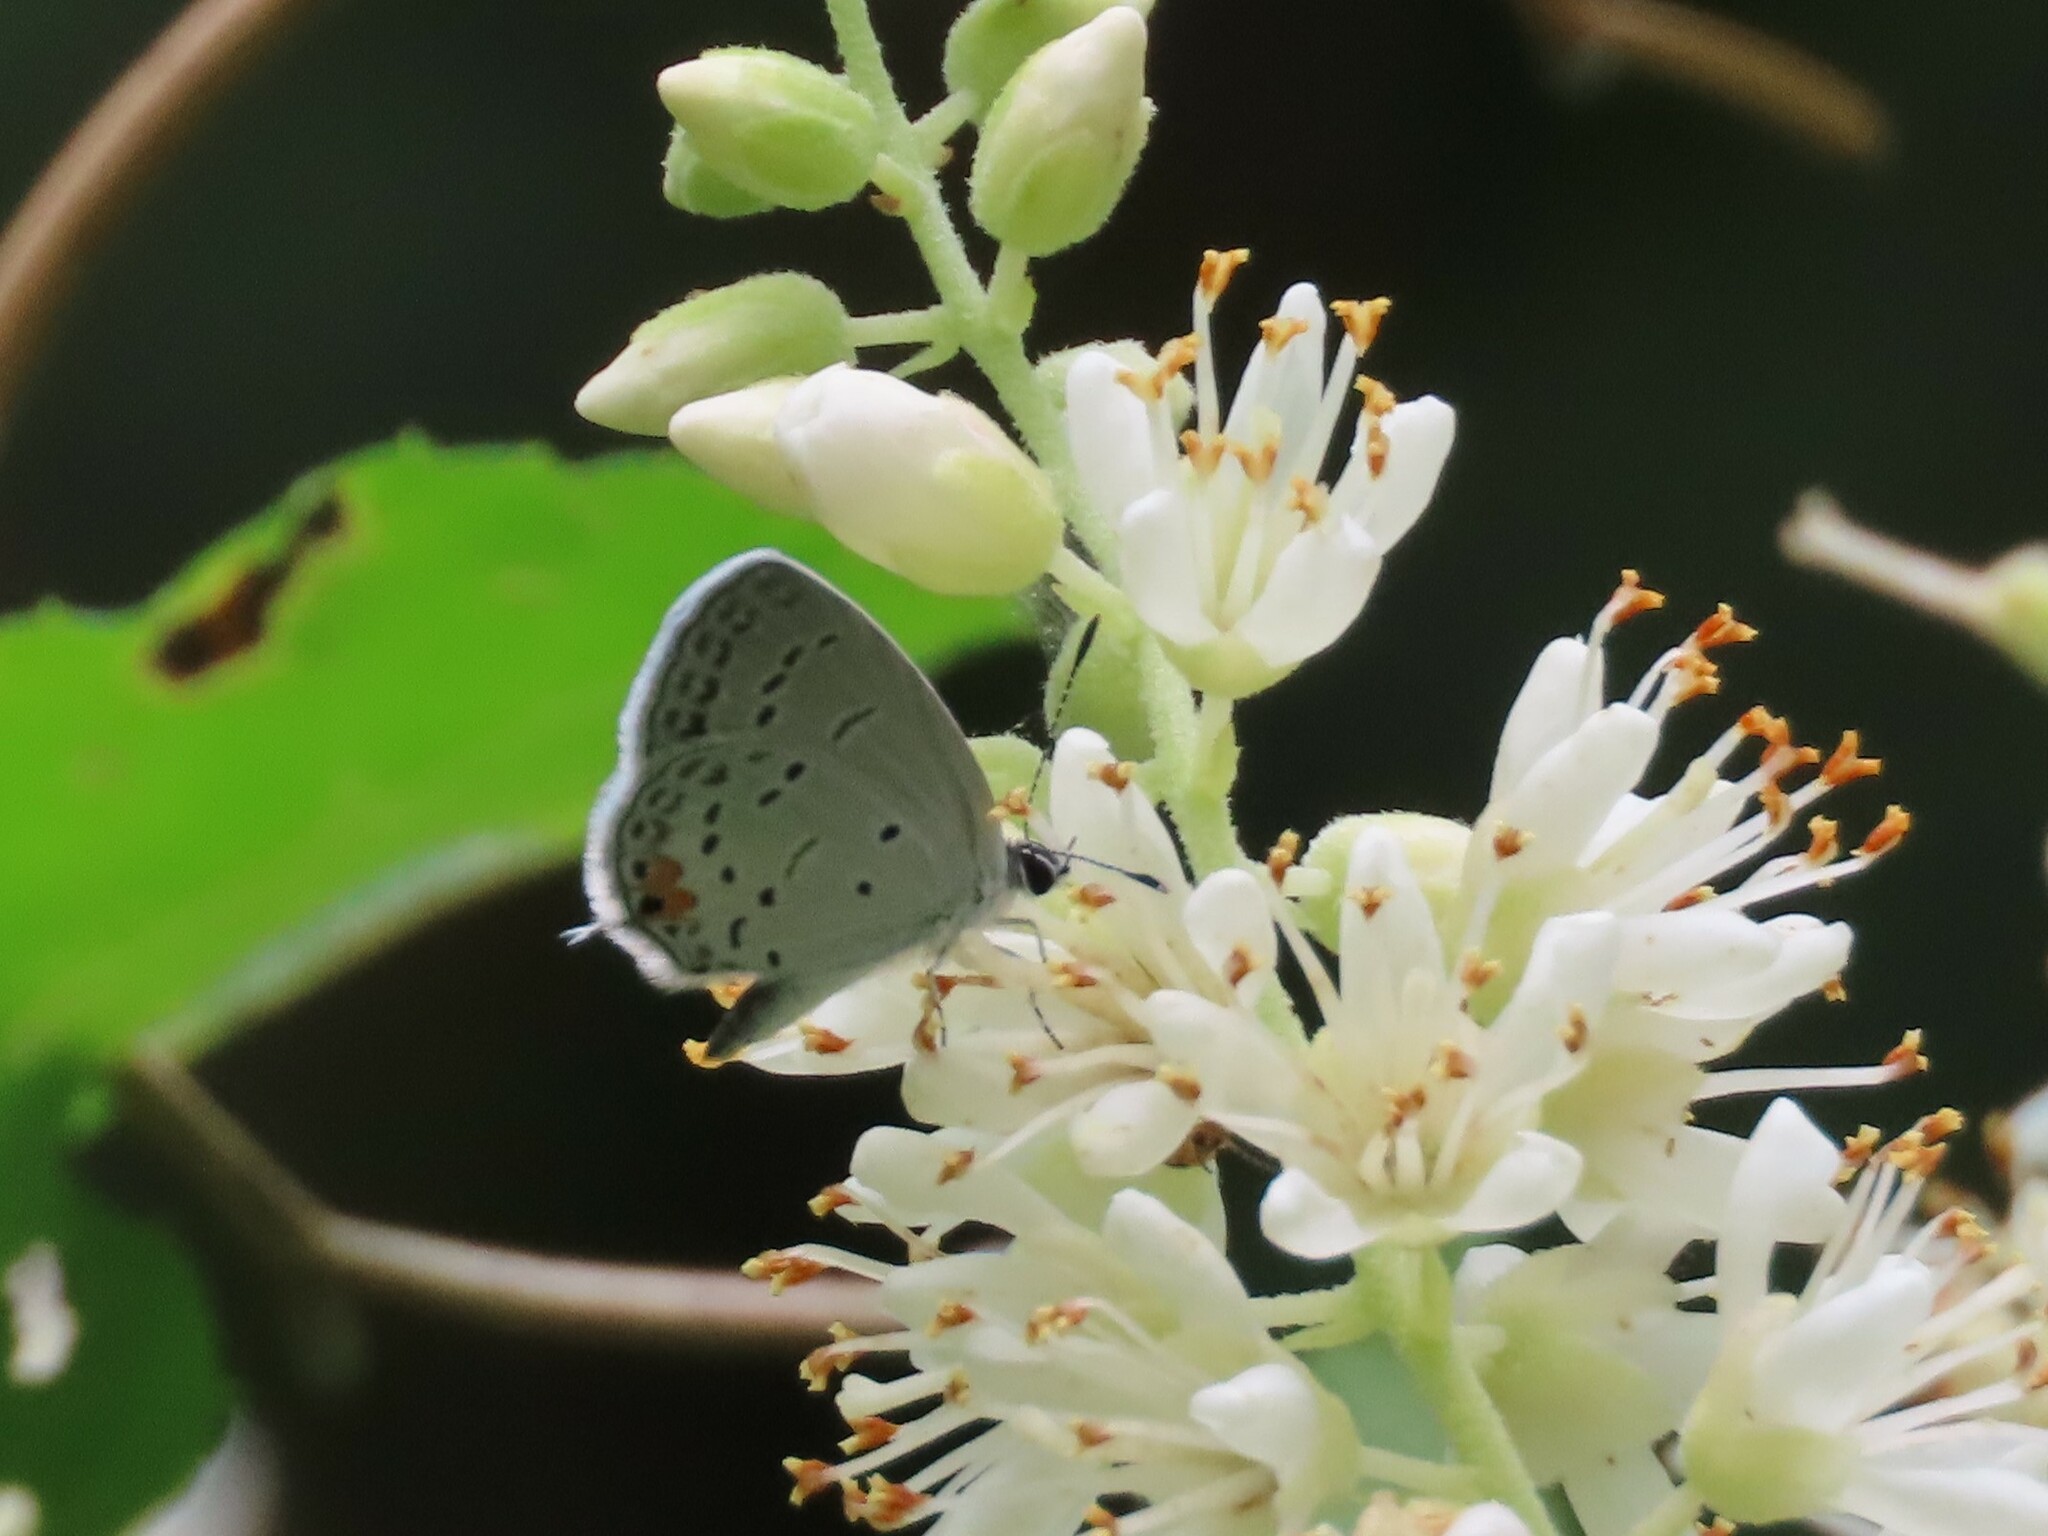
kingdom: Animalia
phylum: Arthropoda
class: Insecta
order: Lepidoptera
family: Lycaenidae
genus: Elkalyce
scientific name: Elkalyce comyntas
